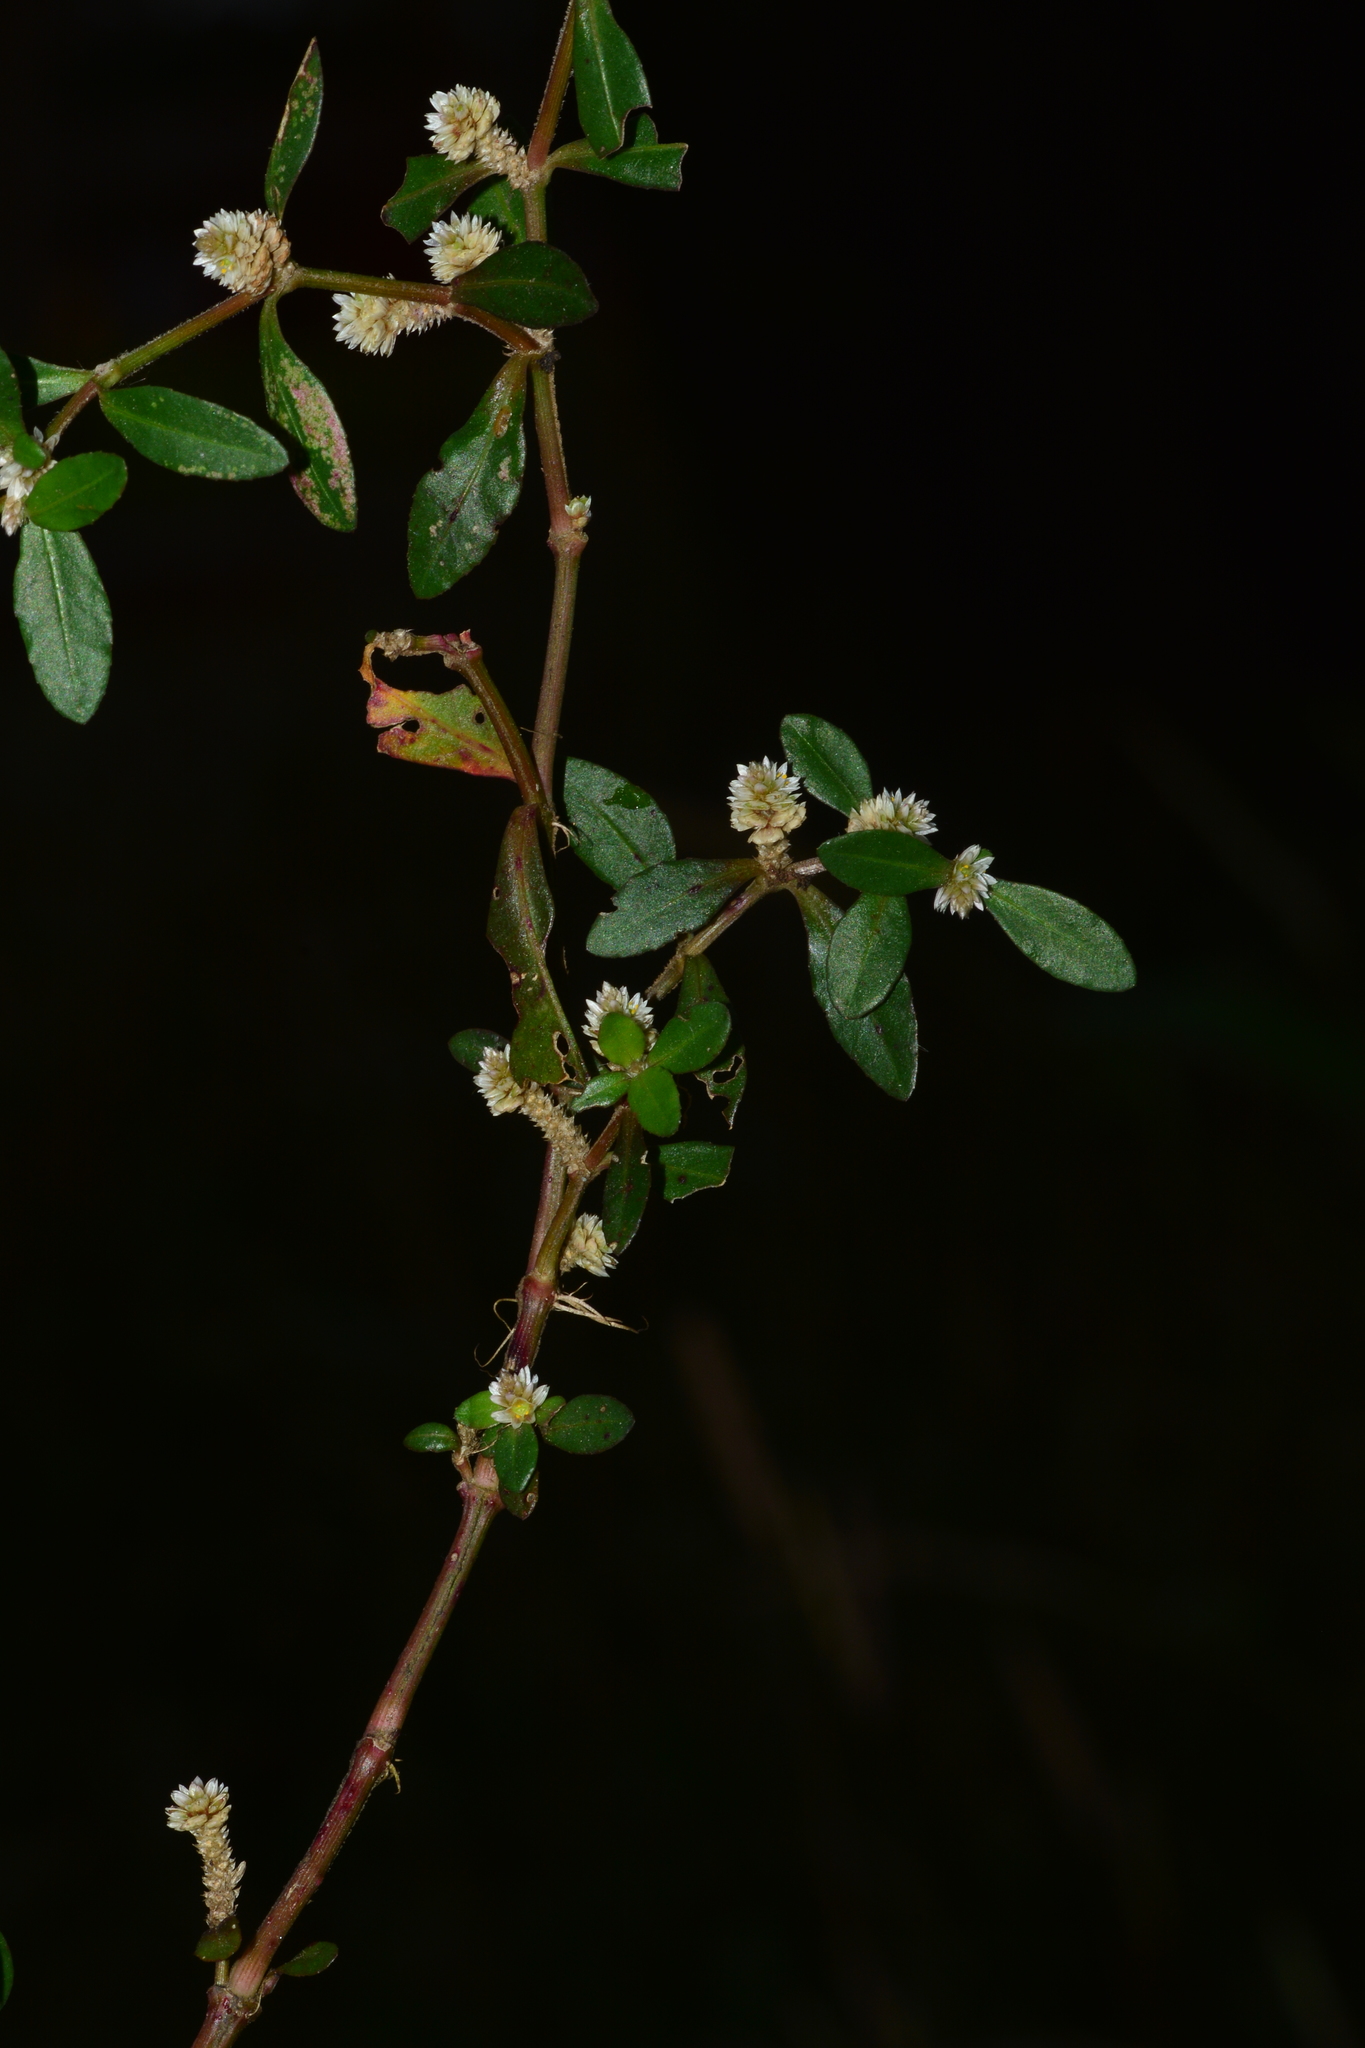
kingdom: Plantae
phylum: Tracheophyta
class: Magnoliopsida
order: Caryophyllales
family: Amaranthaceae
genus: Alternanthera
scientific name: Alternanthera paronychioides
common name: Smooth joyweed
